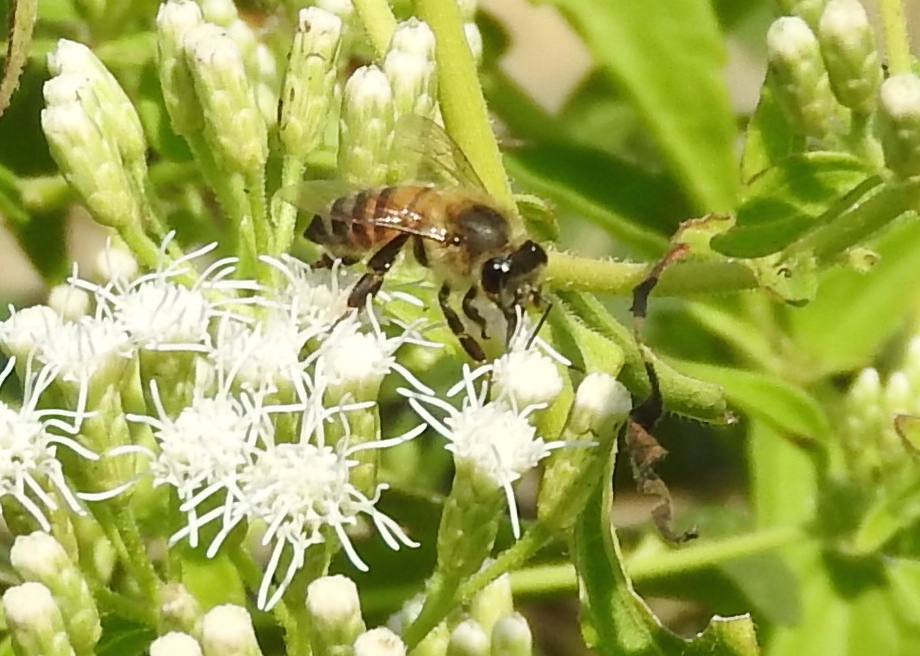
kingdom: Animalia
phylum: Arthropoda
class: Insecta
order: Hymenoptera
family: Apidae
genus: Apis
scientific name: Apis mellifera
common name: Honey bee
